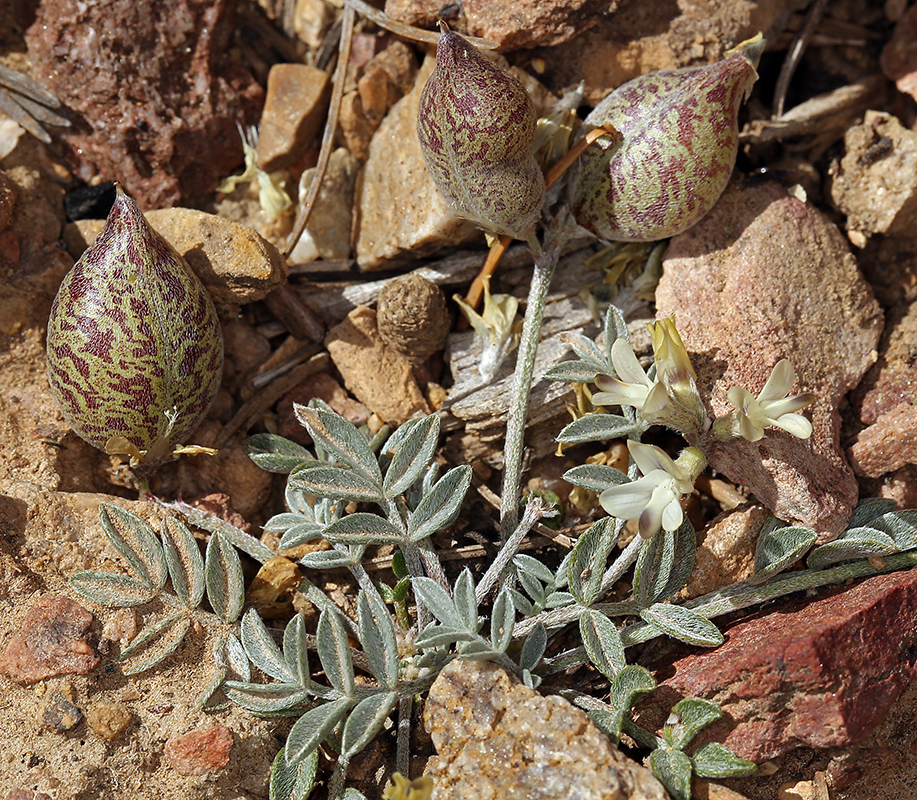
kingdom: Plantae
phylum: Tracheophyta
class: Magnoliopsida
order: Fabales
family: Fabaceae
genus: Astragalus
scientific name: Astragalus platytropis
